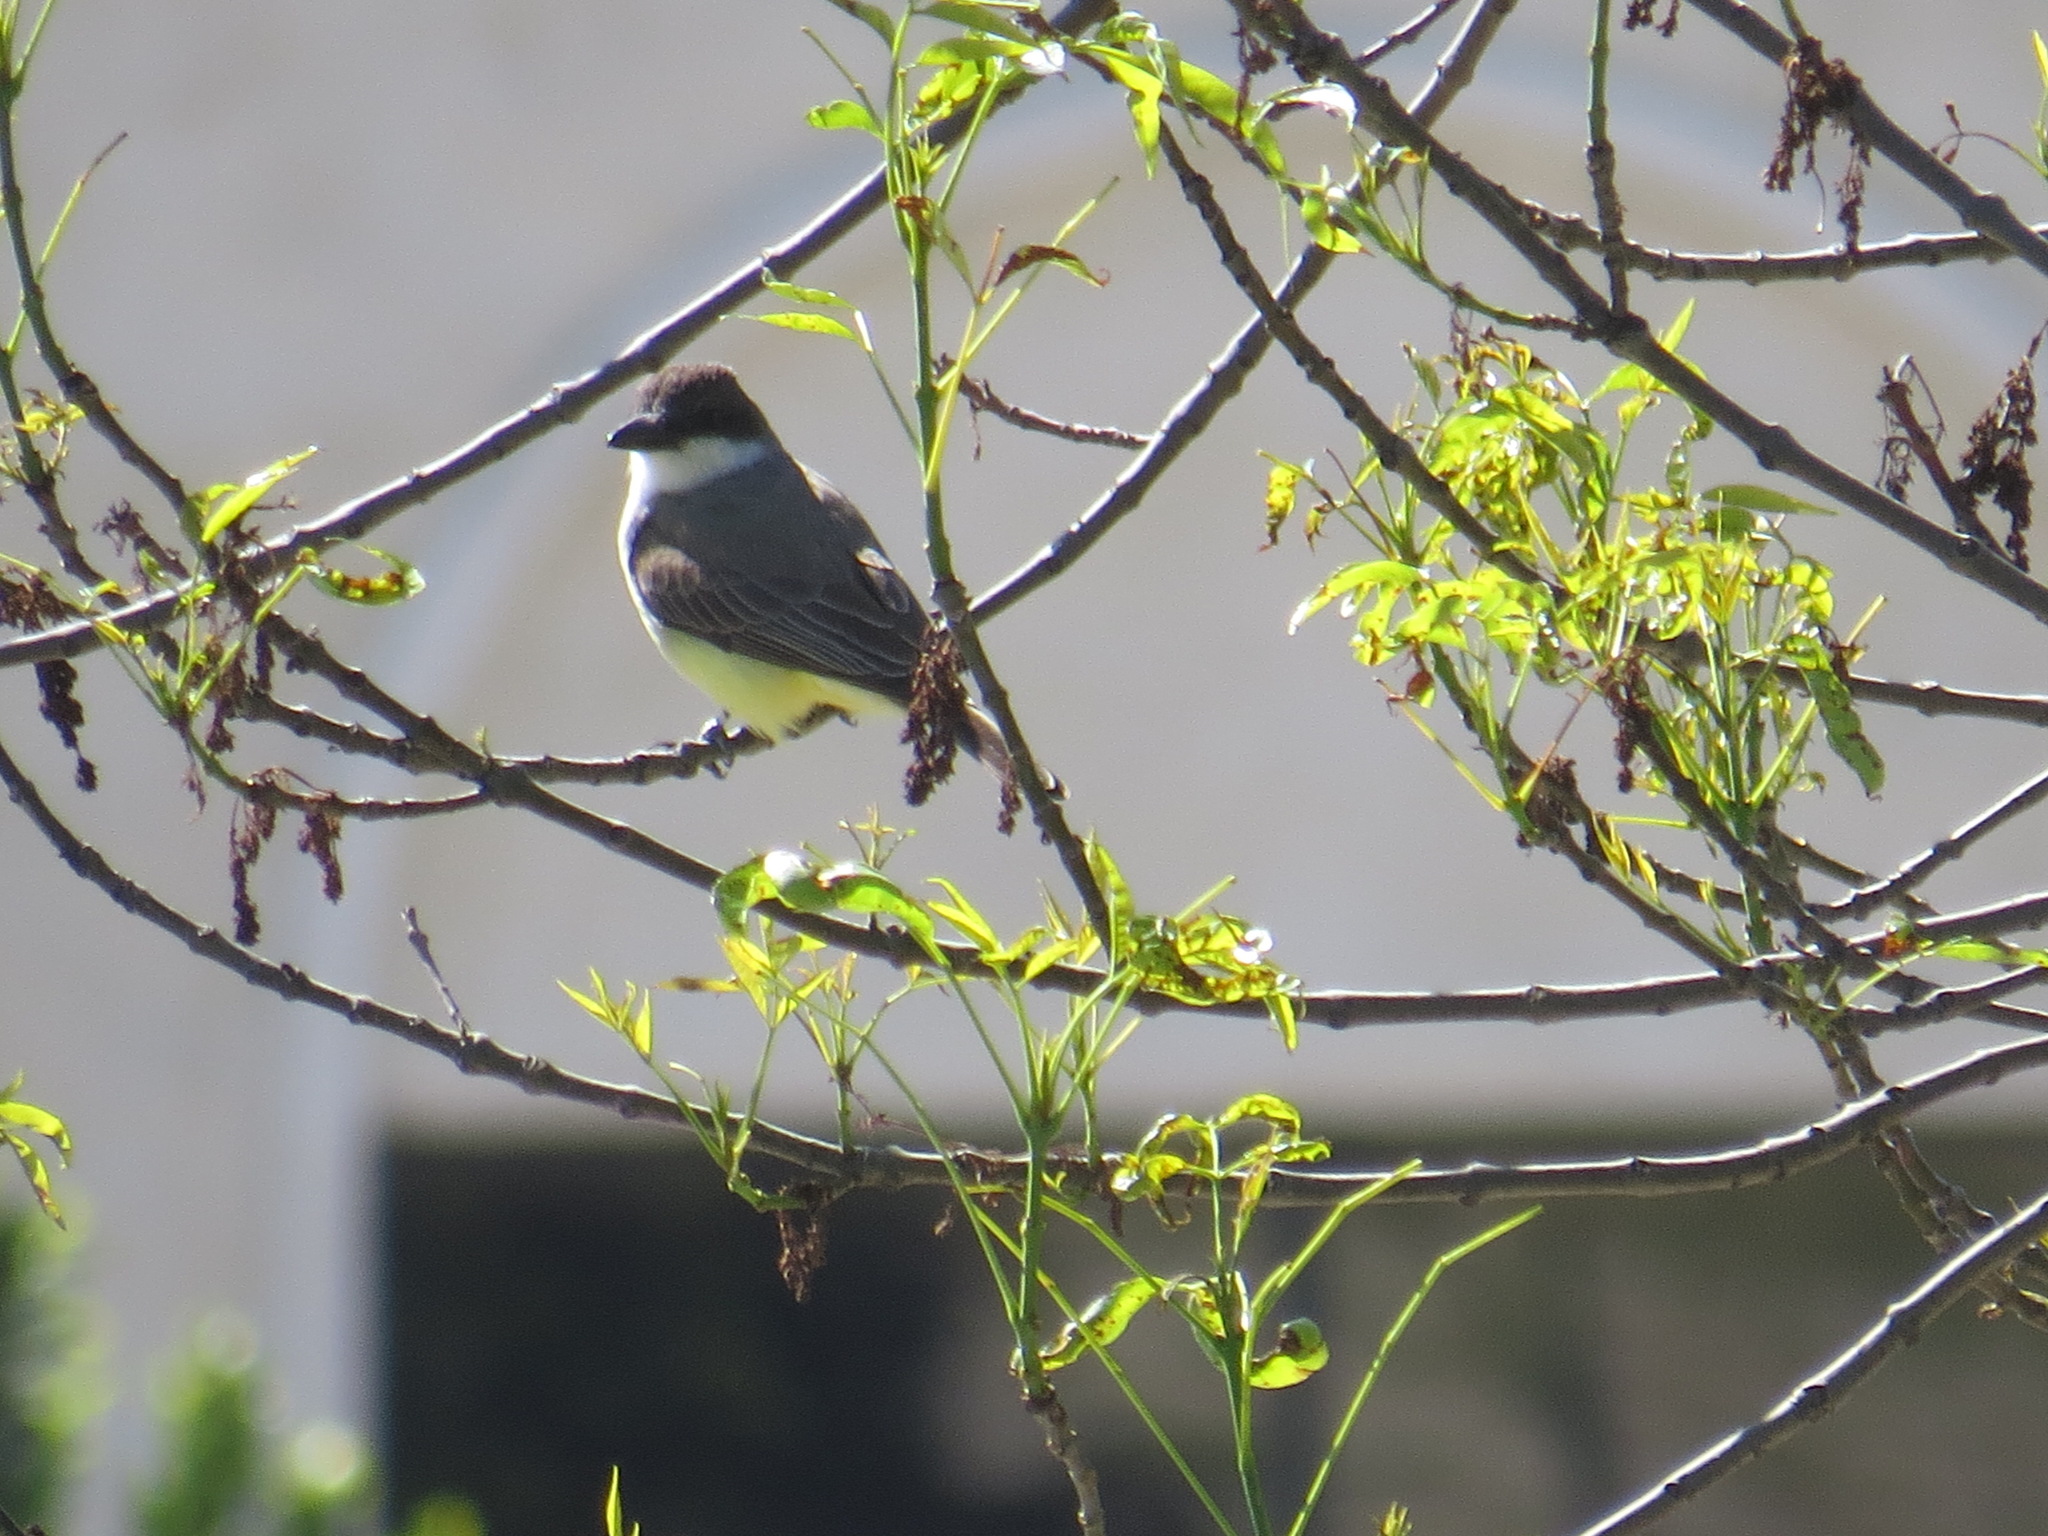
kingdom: Animalia
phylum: Chordata
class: Aves
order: Passeriformes
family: Tyrannidae
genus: Tyrannus
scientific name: Tyrannus crassirostris
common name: Thick-billed kingbird
